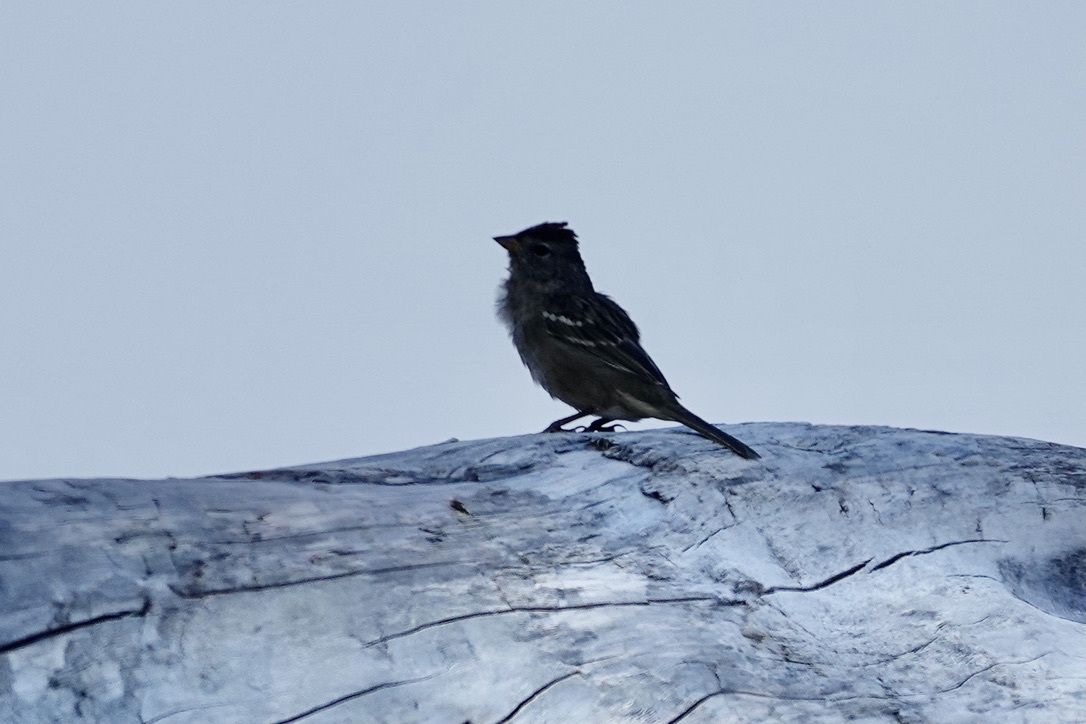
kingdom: Animalia
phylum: Chordata
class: Aves
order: Passeriformes
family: Passerellidae
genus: Zonotrichia
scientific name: Zonotrichia leucophrys
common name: White-crowned sparrow
